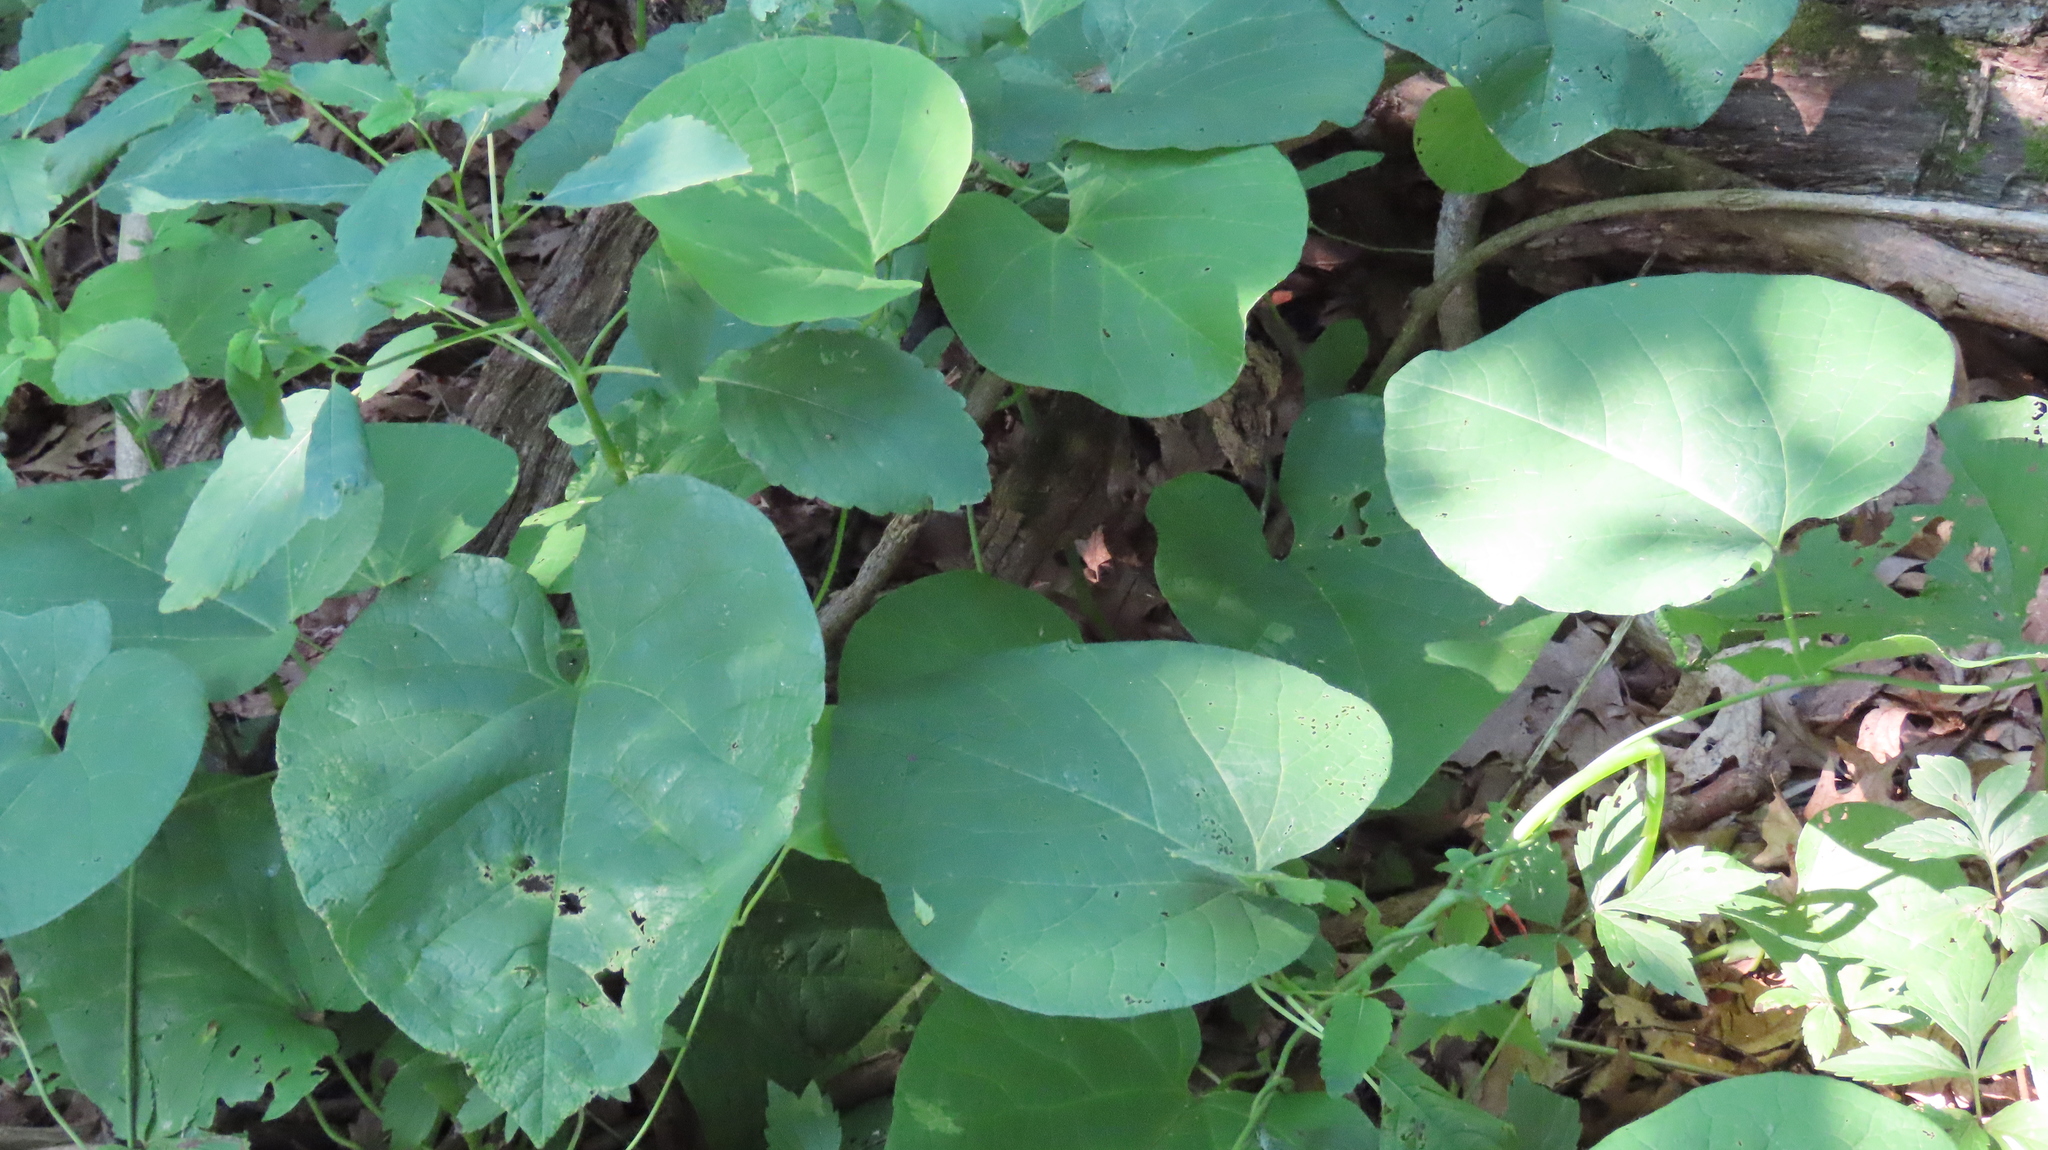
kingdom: Plantae
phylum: Tracheophyta
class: Magnoliopsida
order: Piperales
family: Aristolochiaceae
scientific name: Aristolochiaceae
